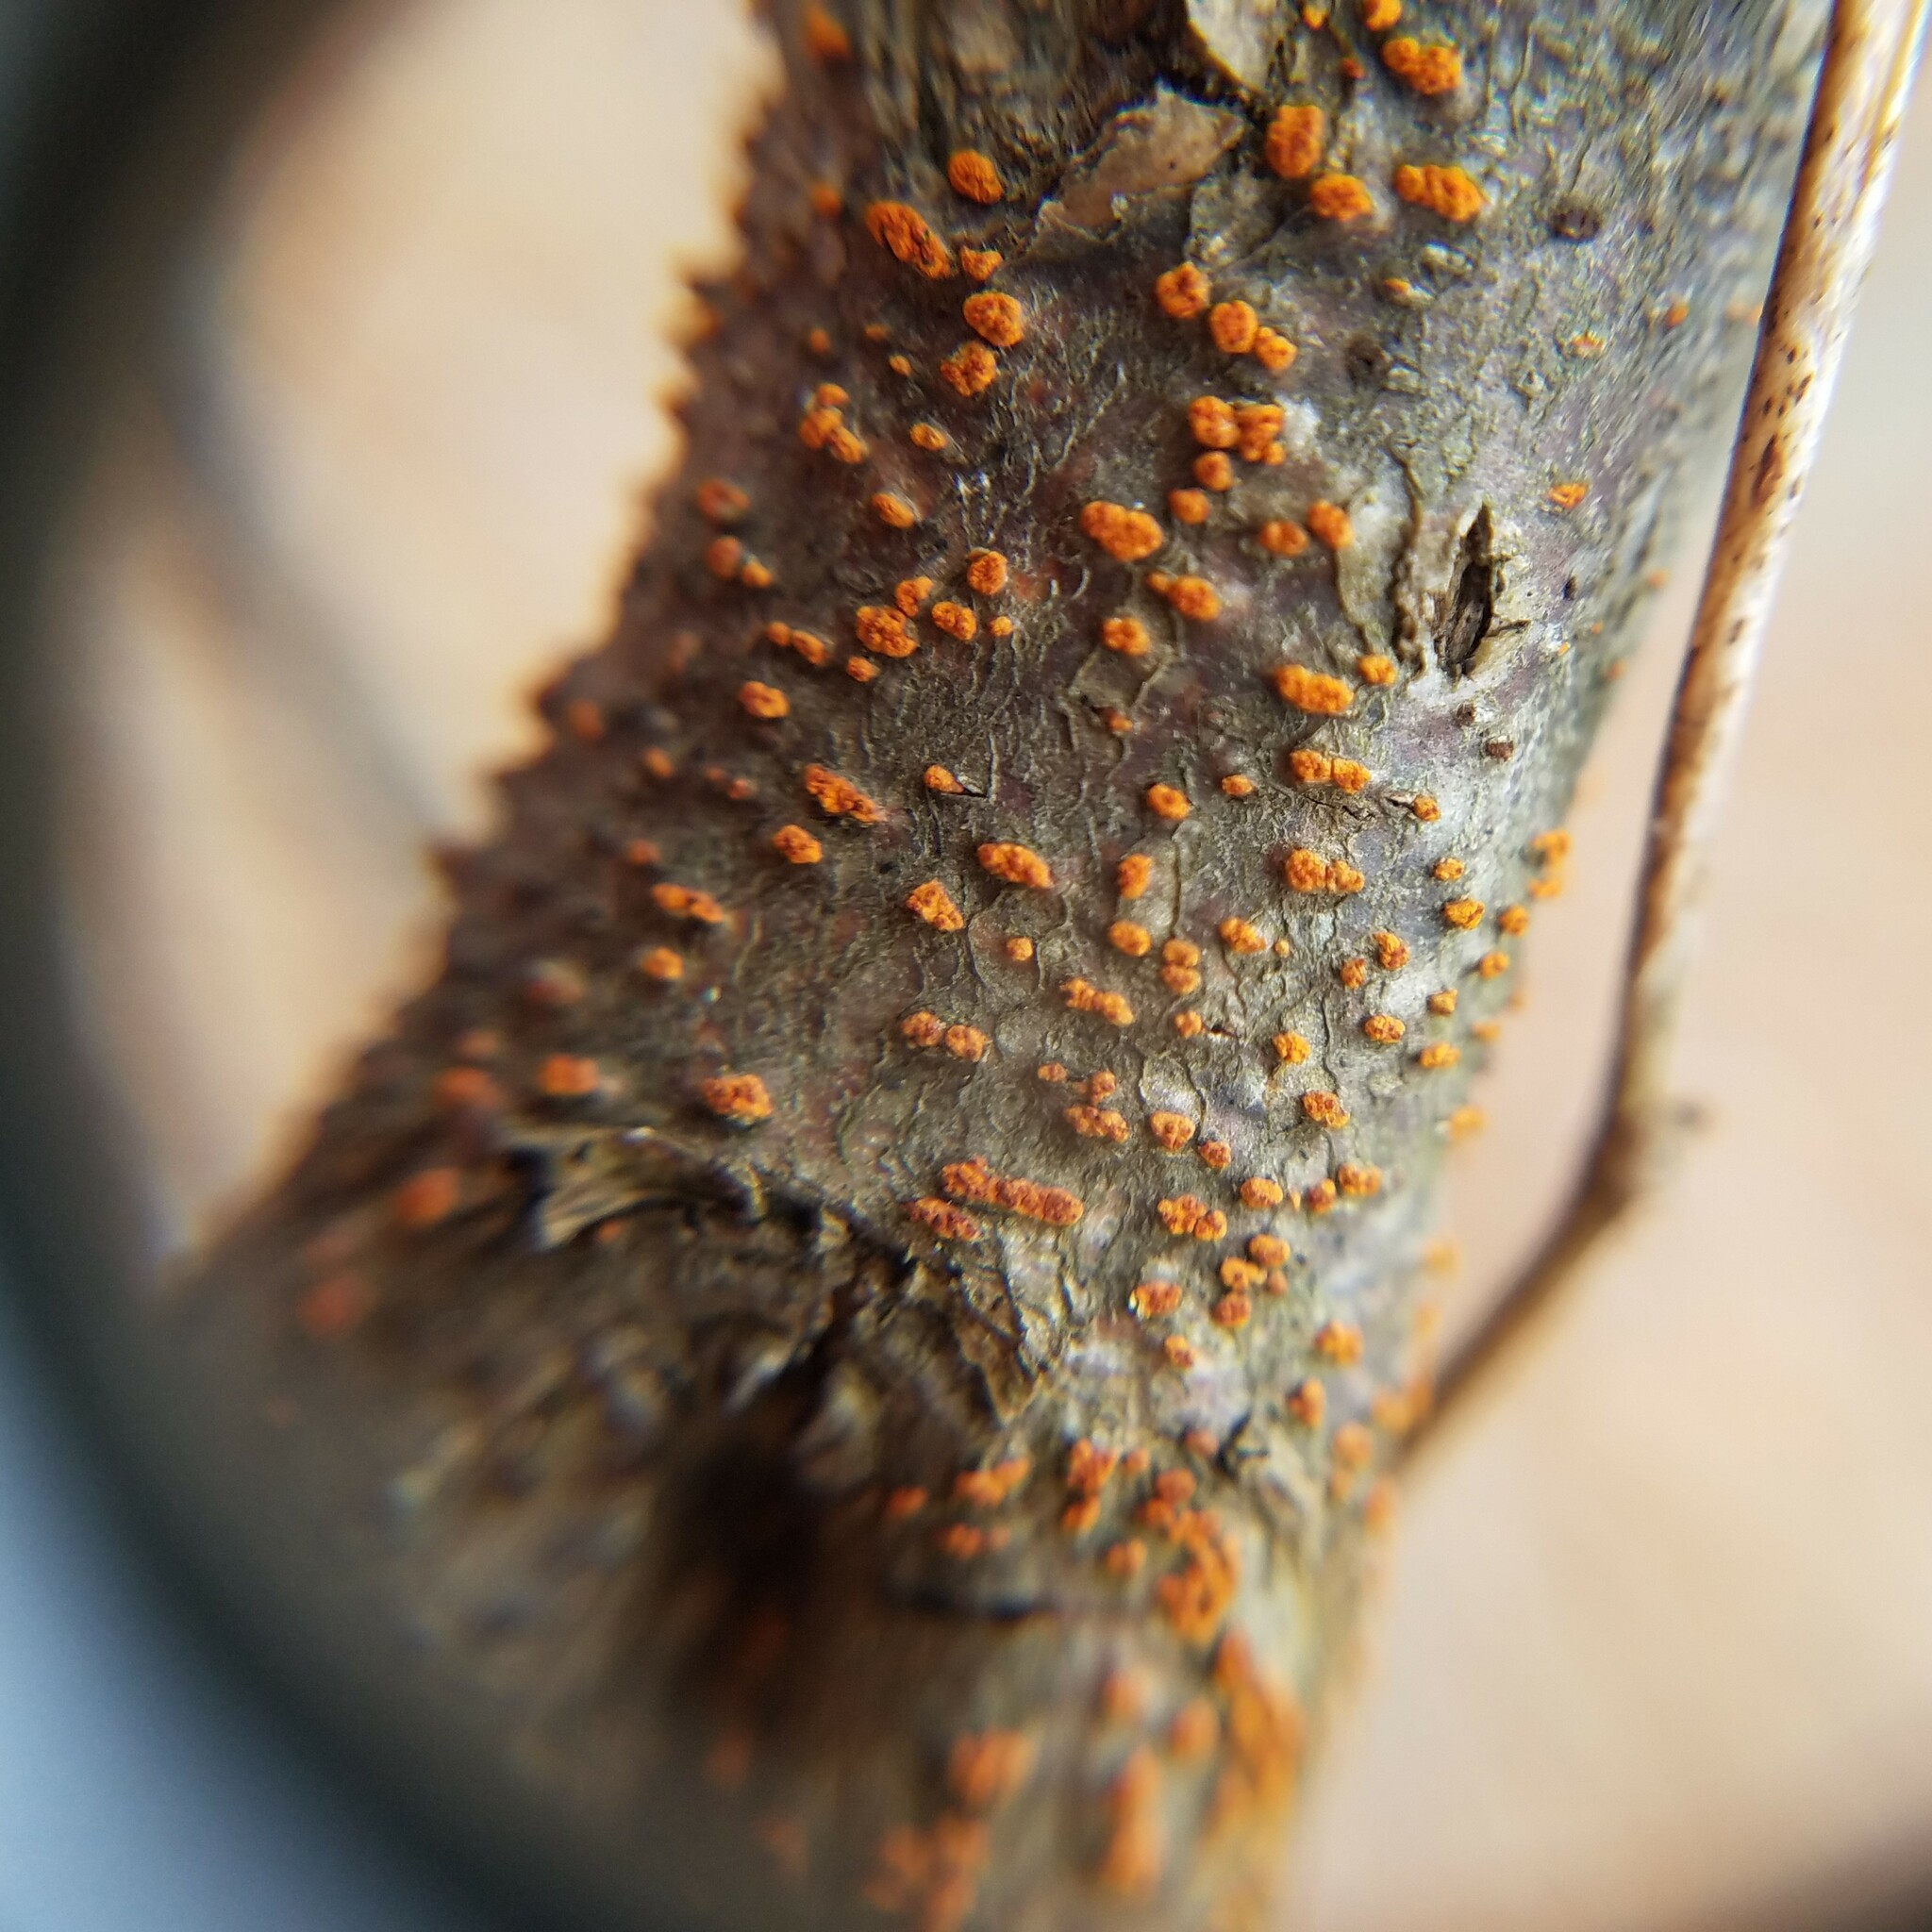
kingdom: Fungi
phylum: Ascomycota
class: Sordariomycetes
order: Diaporthales
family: Cryphonectriaceae
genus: Cryphonectria
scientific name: Cryphonectria parasitica
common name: Chestnut blight
